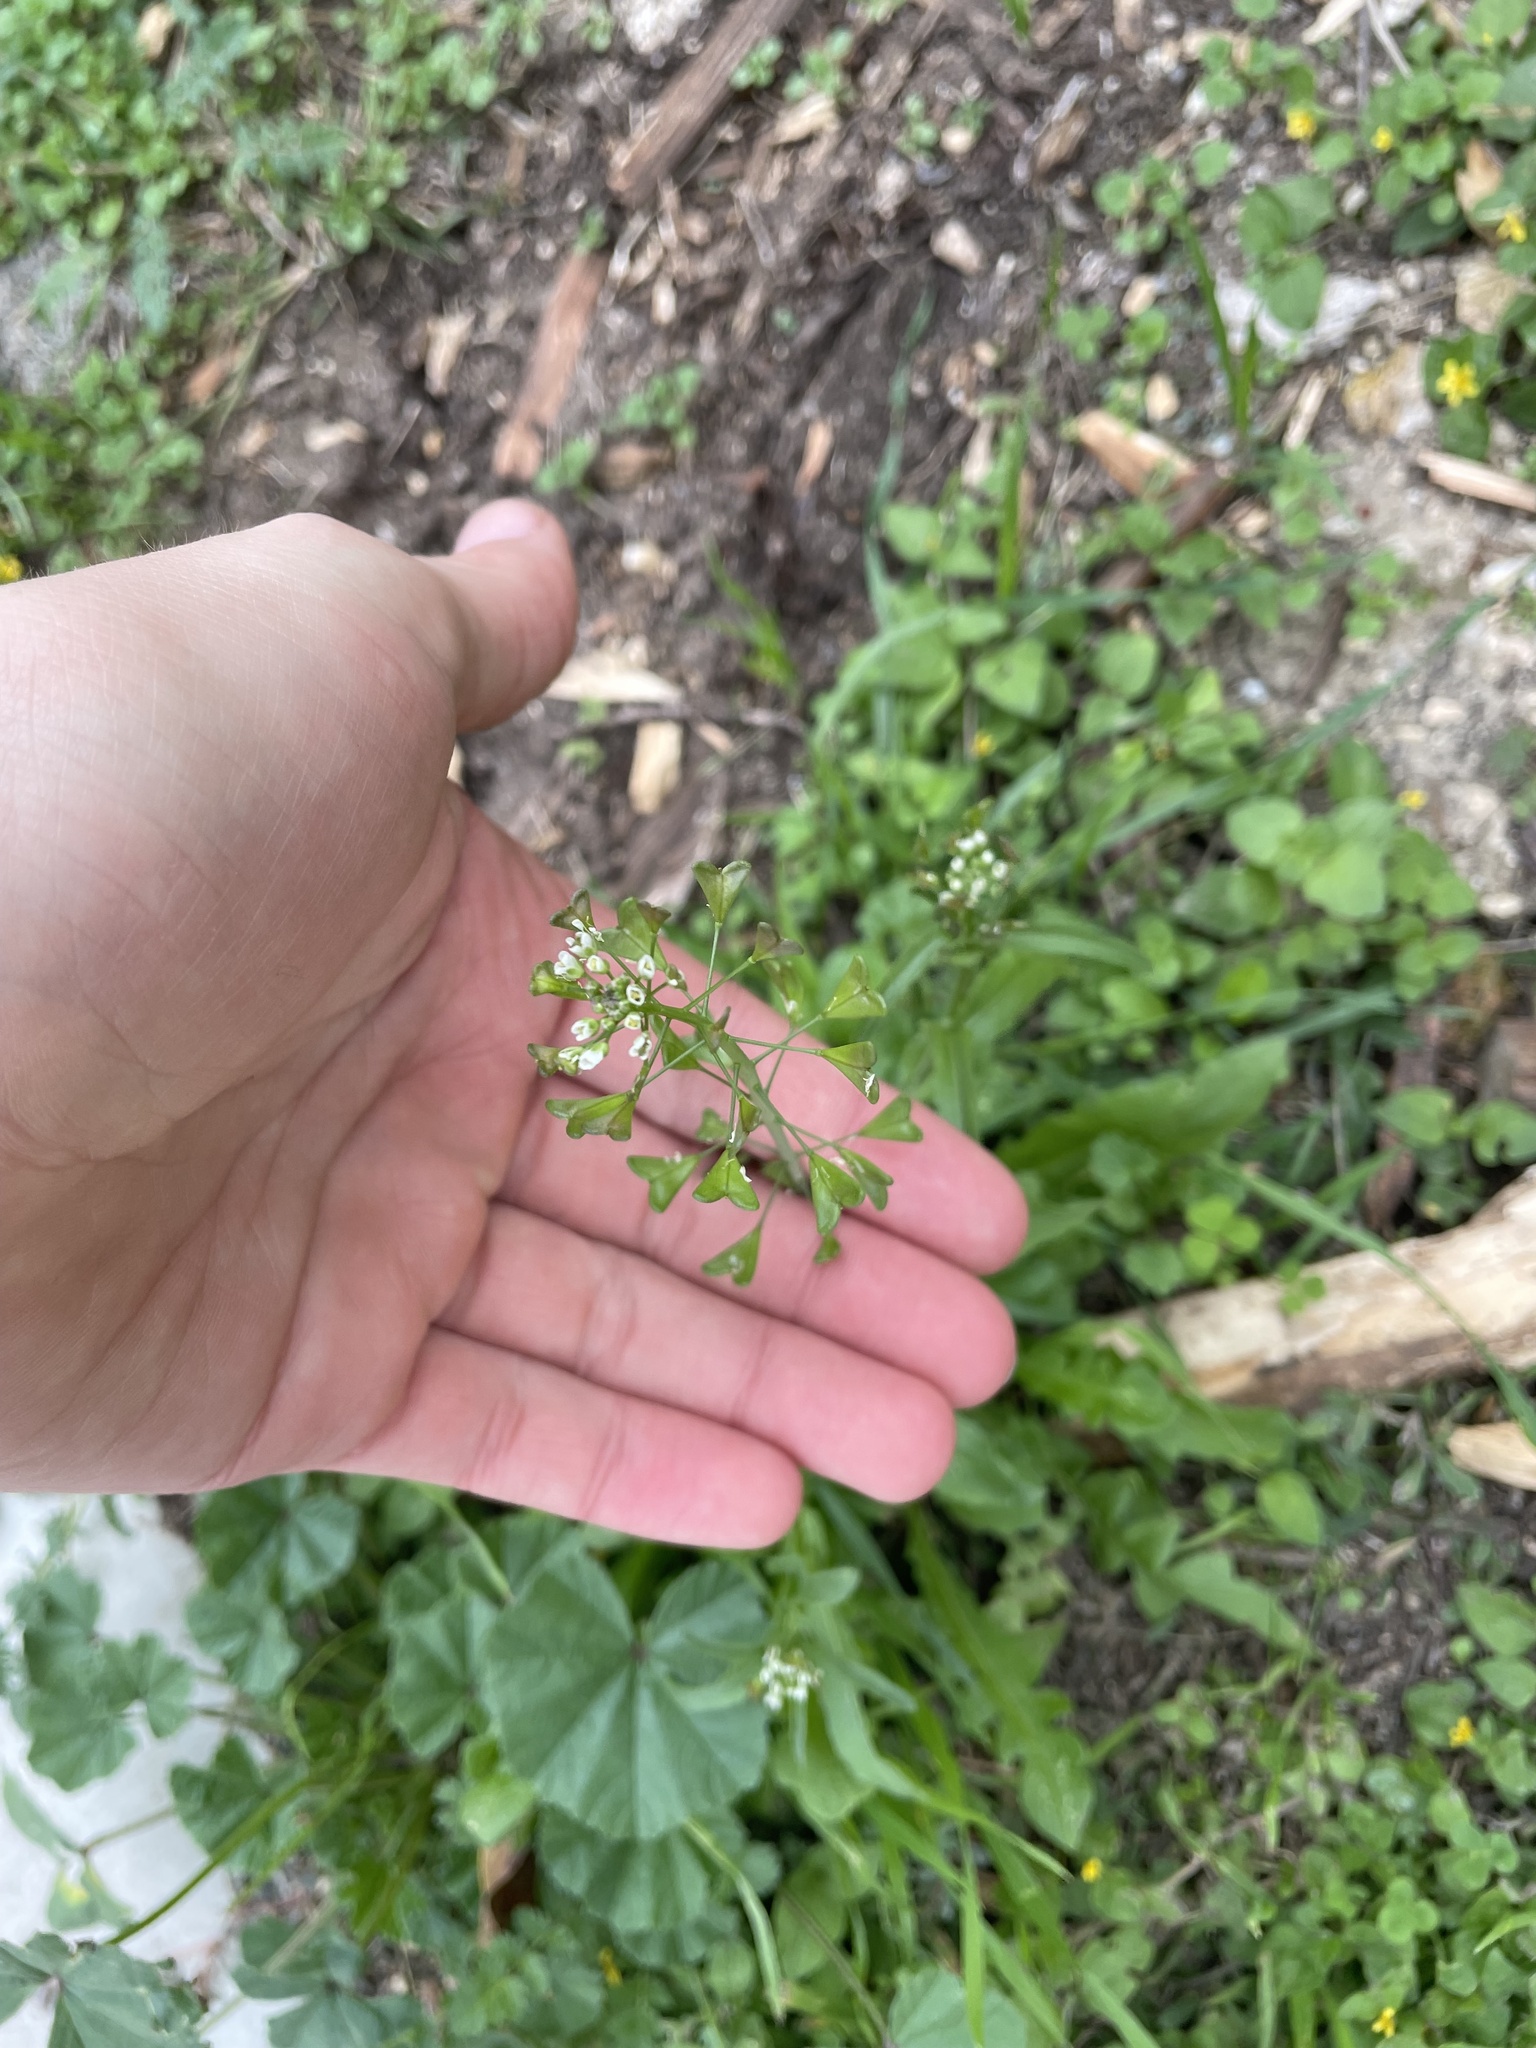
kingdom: Plantae
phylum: Tracheophyta
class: Magnoliopsida
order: Brassicales
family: Brassicaceae
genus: Capsella
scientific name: Capsella bursa-pastoris
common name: Shepherd's purse
